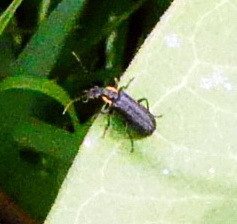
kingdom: Animalia
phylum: Arthropoda
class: Insecta
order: Coleoptera
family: Cantharidae
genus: Podabrus
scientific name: Podabrus rugosulus
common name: Wrinkled soldier beetle
